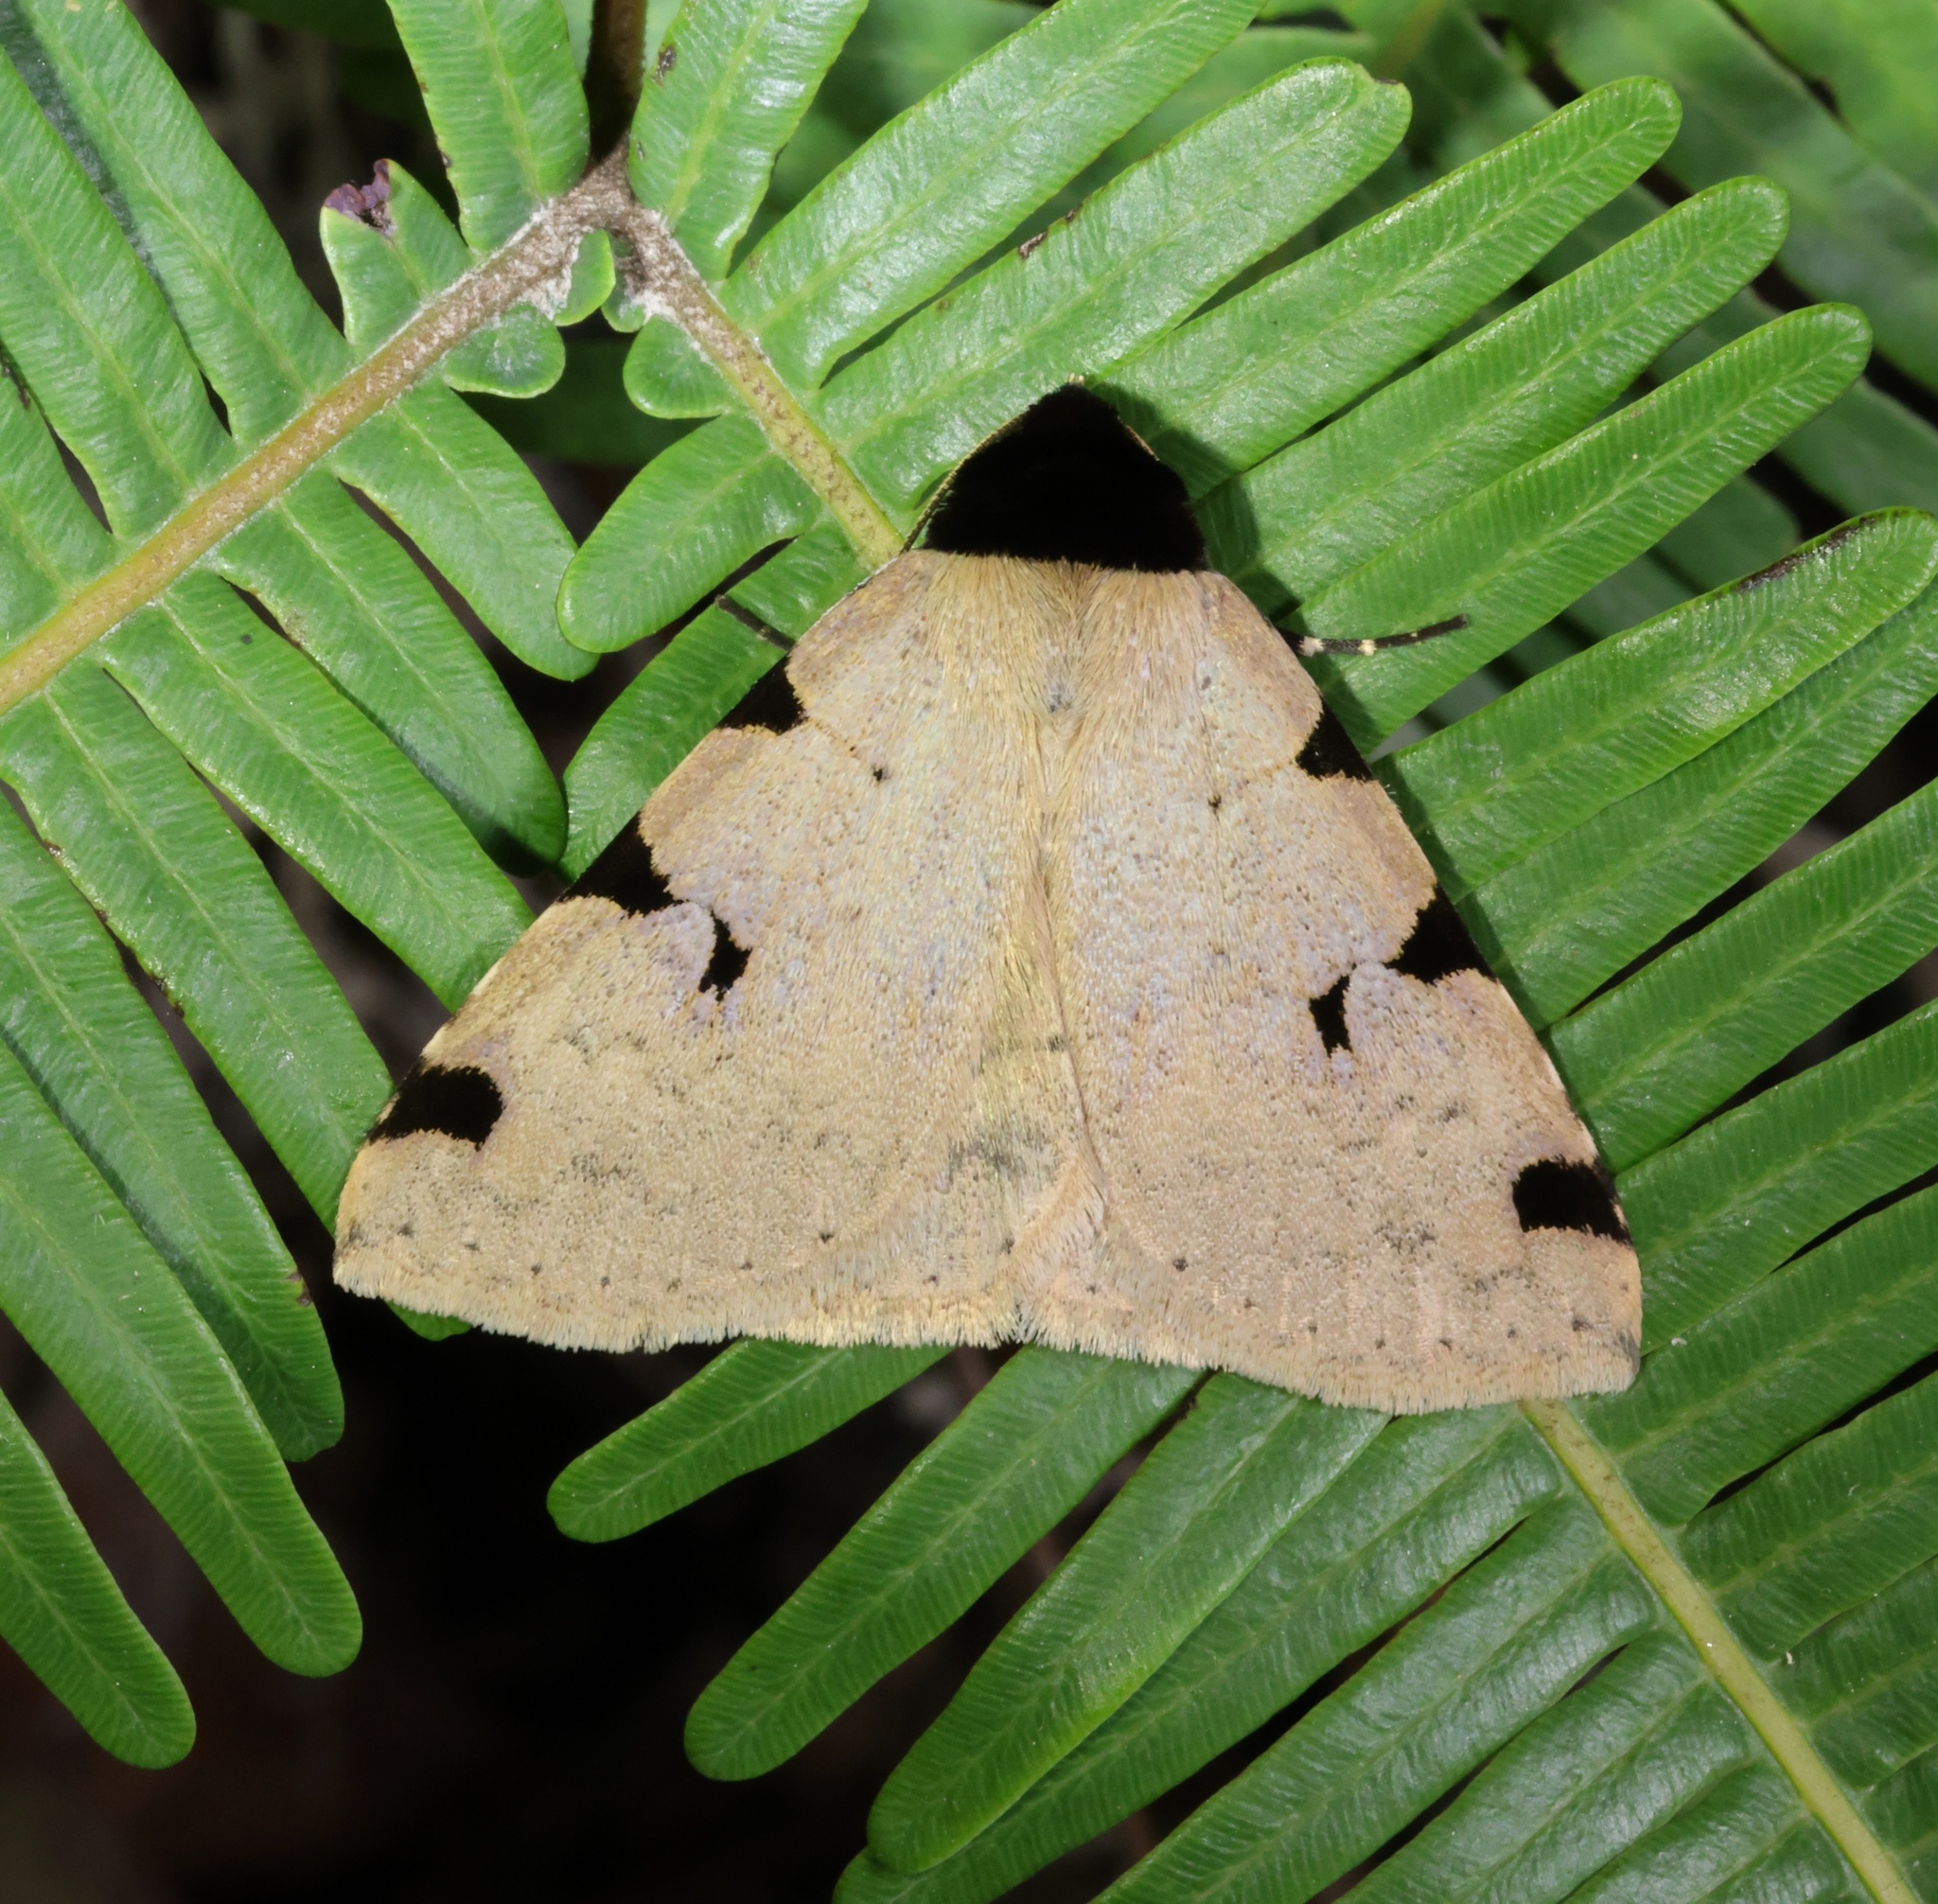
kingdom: Animalia
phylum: Arthropoda
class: Insecta
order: Lepidoptera
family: Erebidae
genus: Rema
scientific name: Rema costimacula
